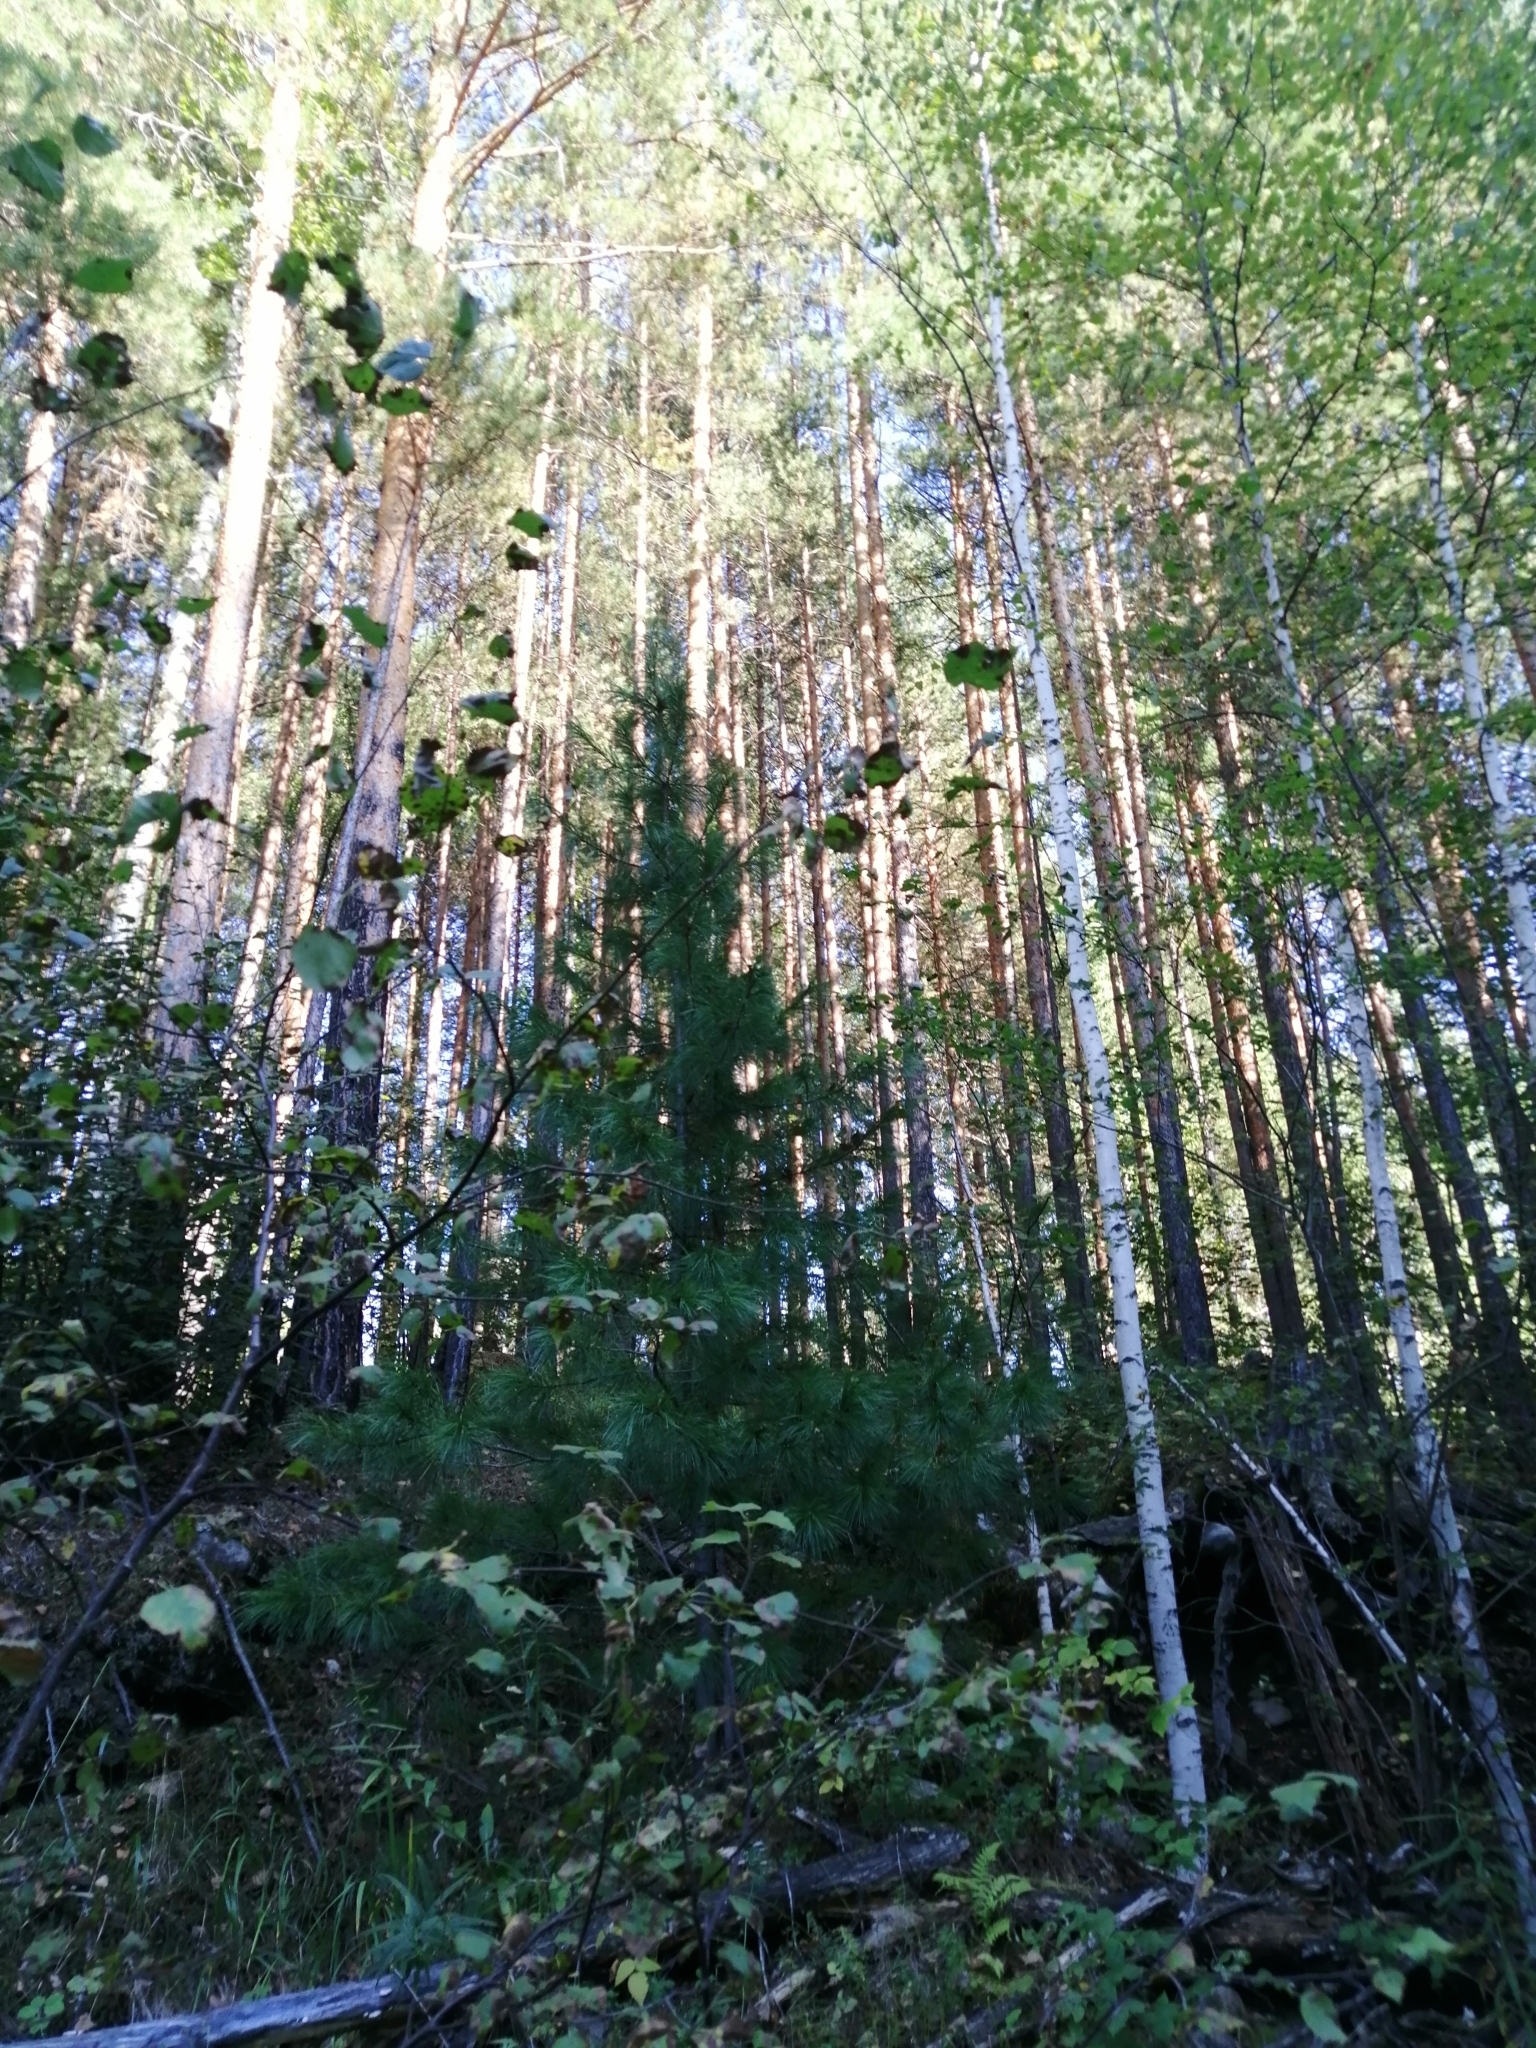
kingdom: Plantae
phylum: Tracheophyta
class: Pinopsida
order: Pinales
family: Pinaceae
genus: Pinus
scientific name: Pinus sibirica
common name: Siberian pine
